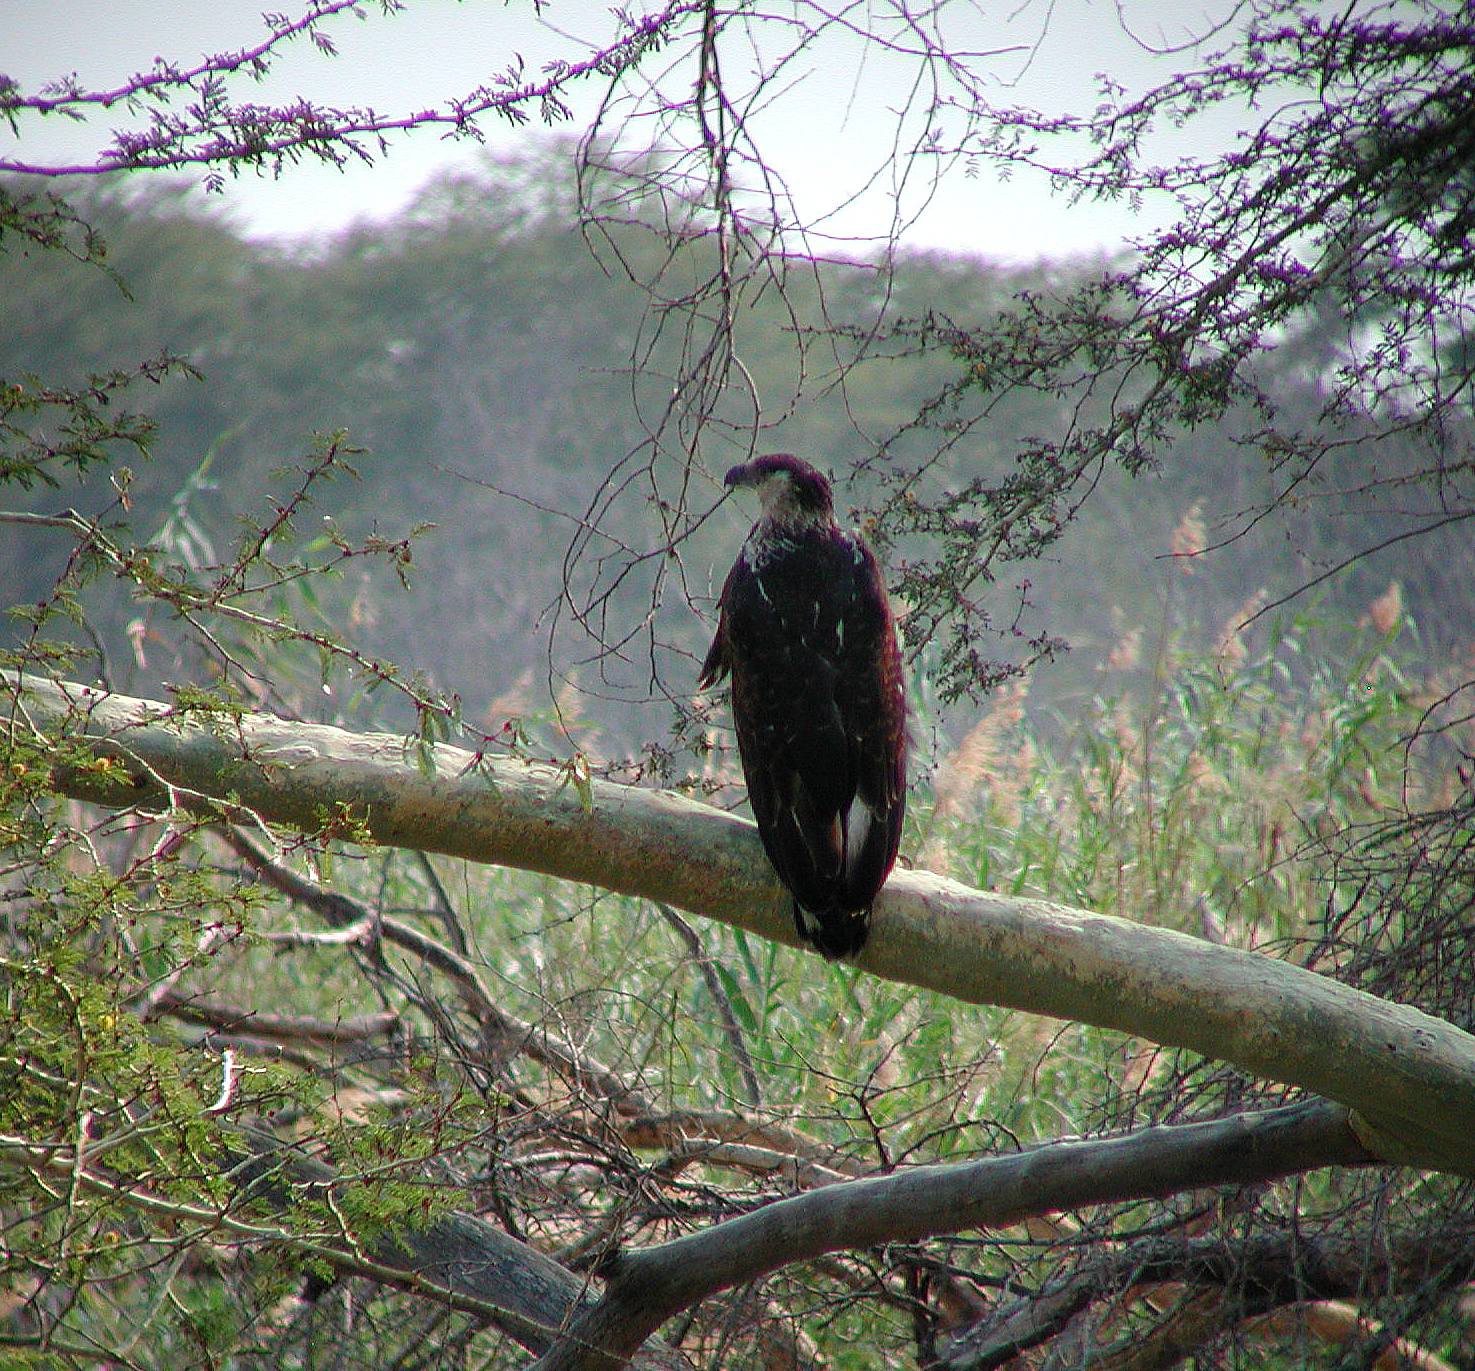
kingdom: Animalia
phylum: Chordata
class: Aves
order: Accipitriformes
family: Accipitridae
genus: Haliaeetus
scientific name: Haliaeetus vocifer
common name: African fish eagle
